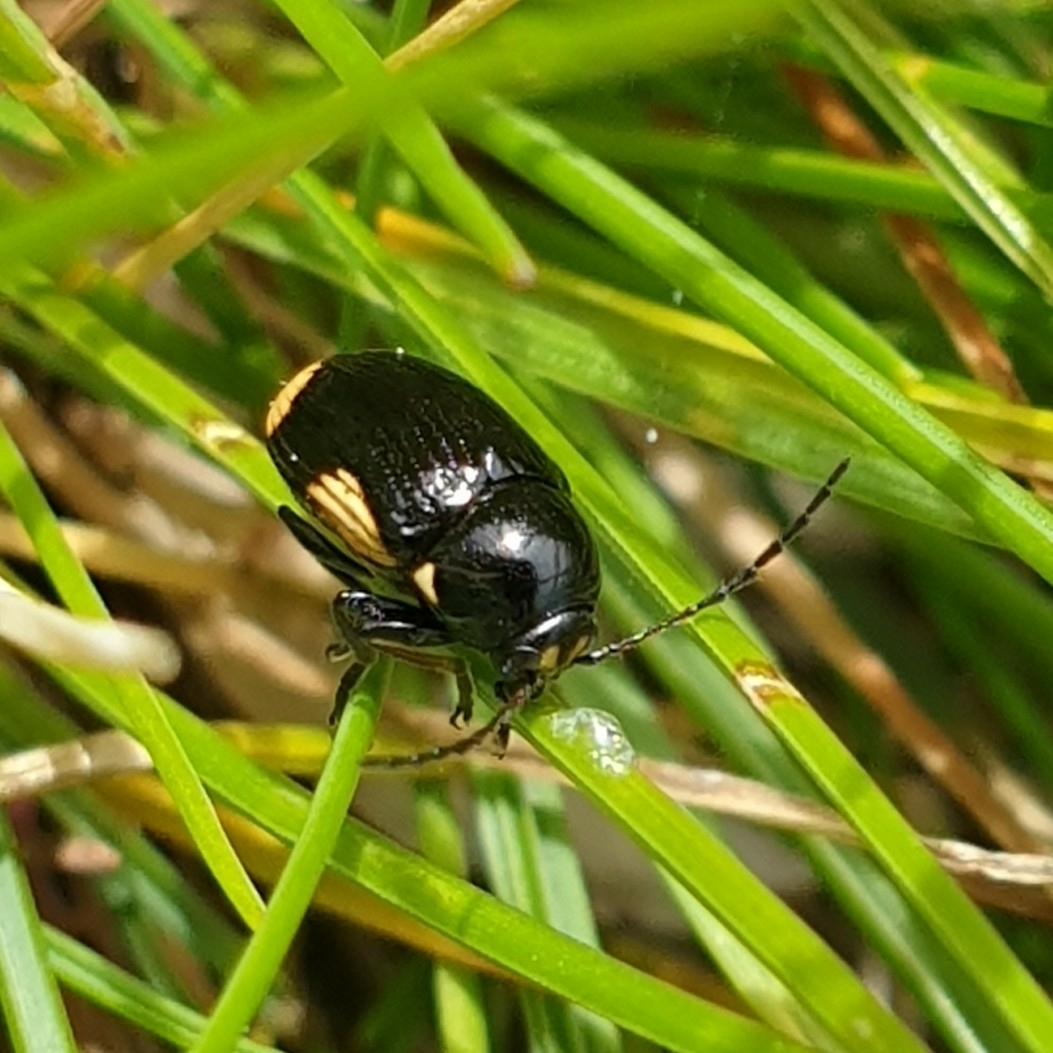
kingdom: Animalia
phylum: Arthropoda
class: Insecta
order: Coleoptera
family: Chrysomelidae
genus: Cryptocephalus
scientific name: Cryptocephalus moraei
